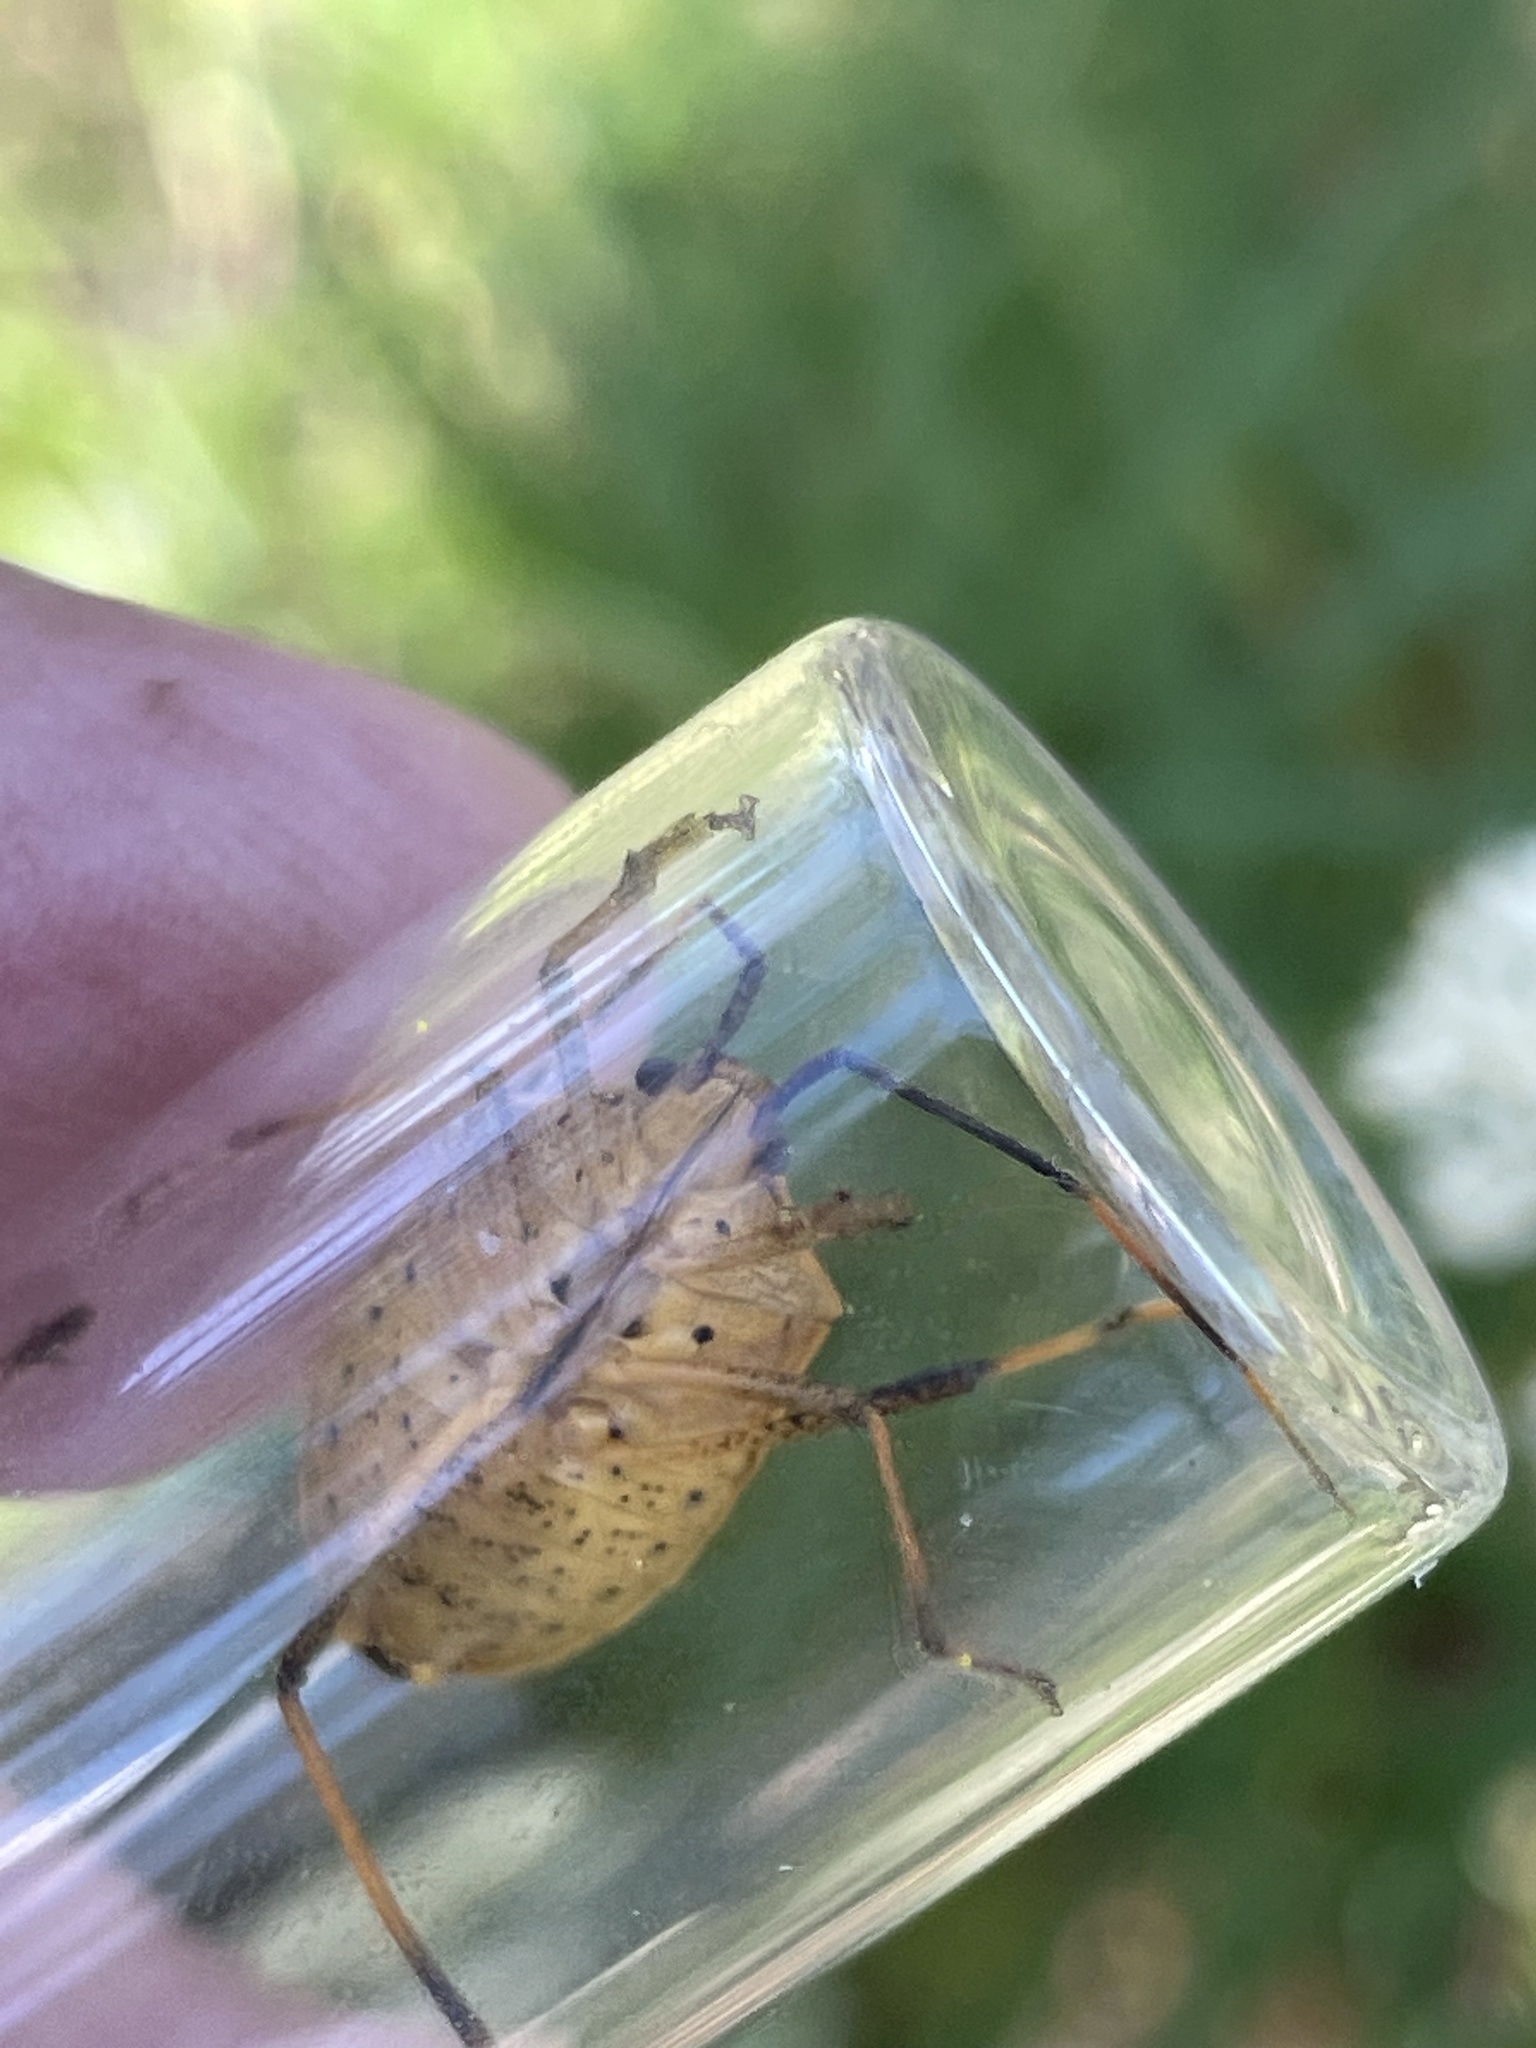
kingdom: Animalia
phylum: Arthropoda
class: Insecta
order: Hemiptera
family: Pentatomidae
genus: Poecilometis
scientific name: Poecilometis
